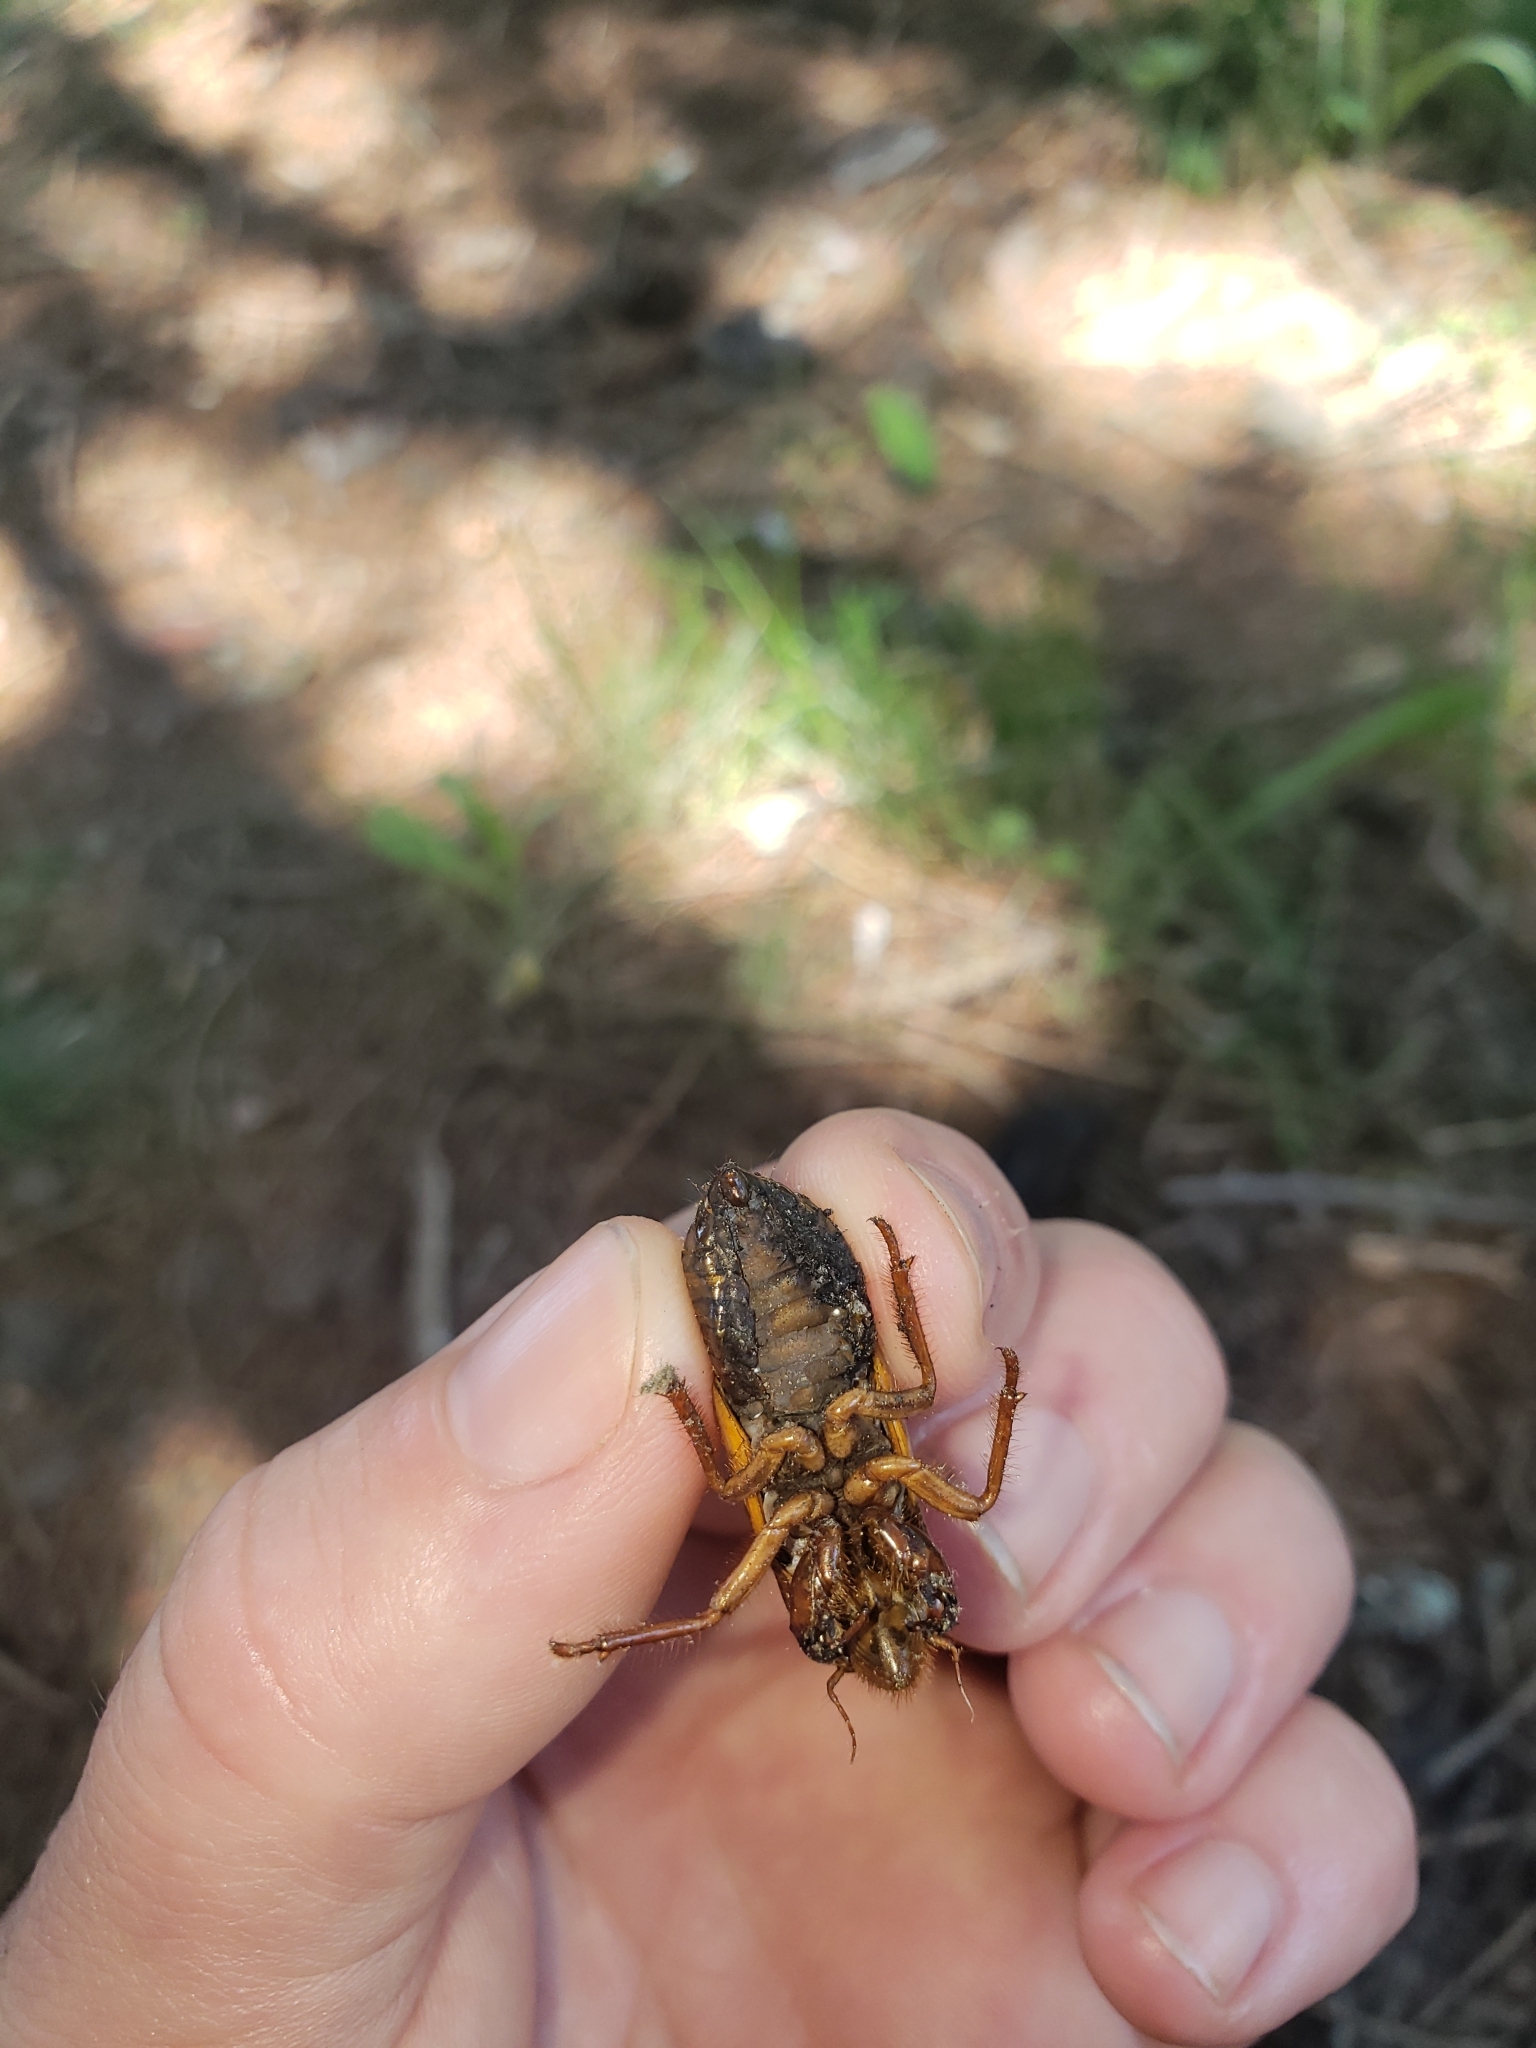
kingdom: Animalia
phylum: Arthropoda
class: Insecta
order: Hemiptera
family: Cicadidae
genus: Magicicada
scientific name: Magicicada
